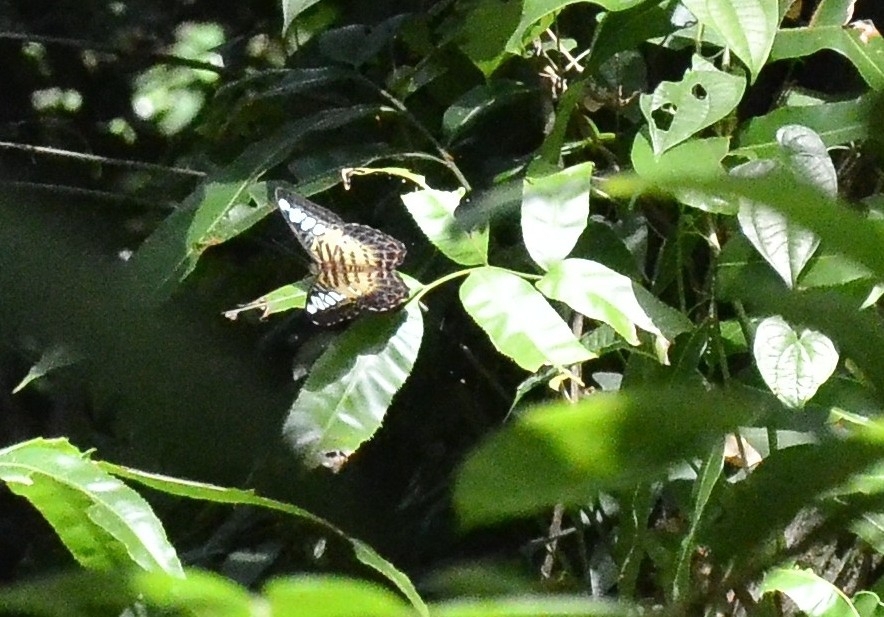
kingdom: Animalia
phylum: Arthropoda
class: Insecta
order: Lepidoptera
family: Nymphalidae
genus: Kallima
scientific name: Kallima sylvia
